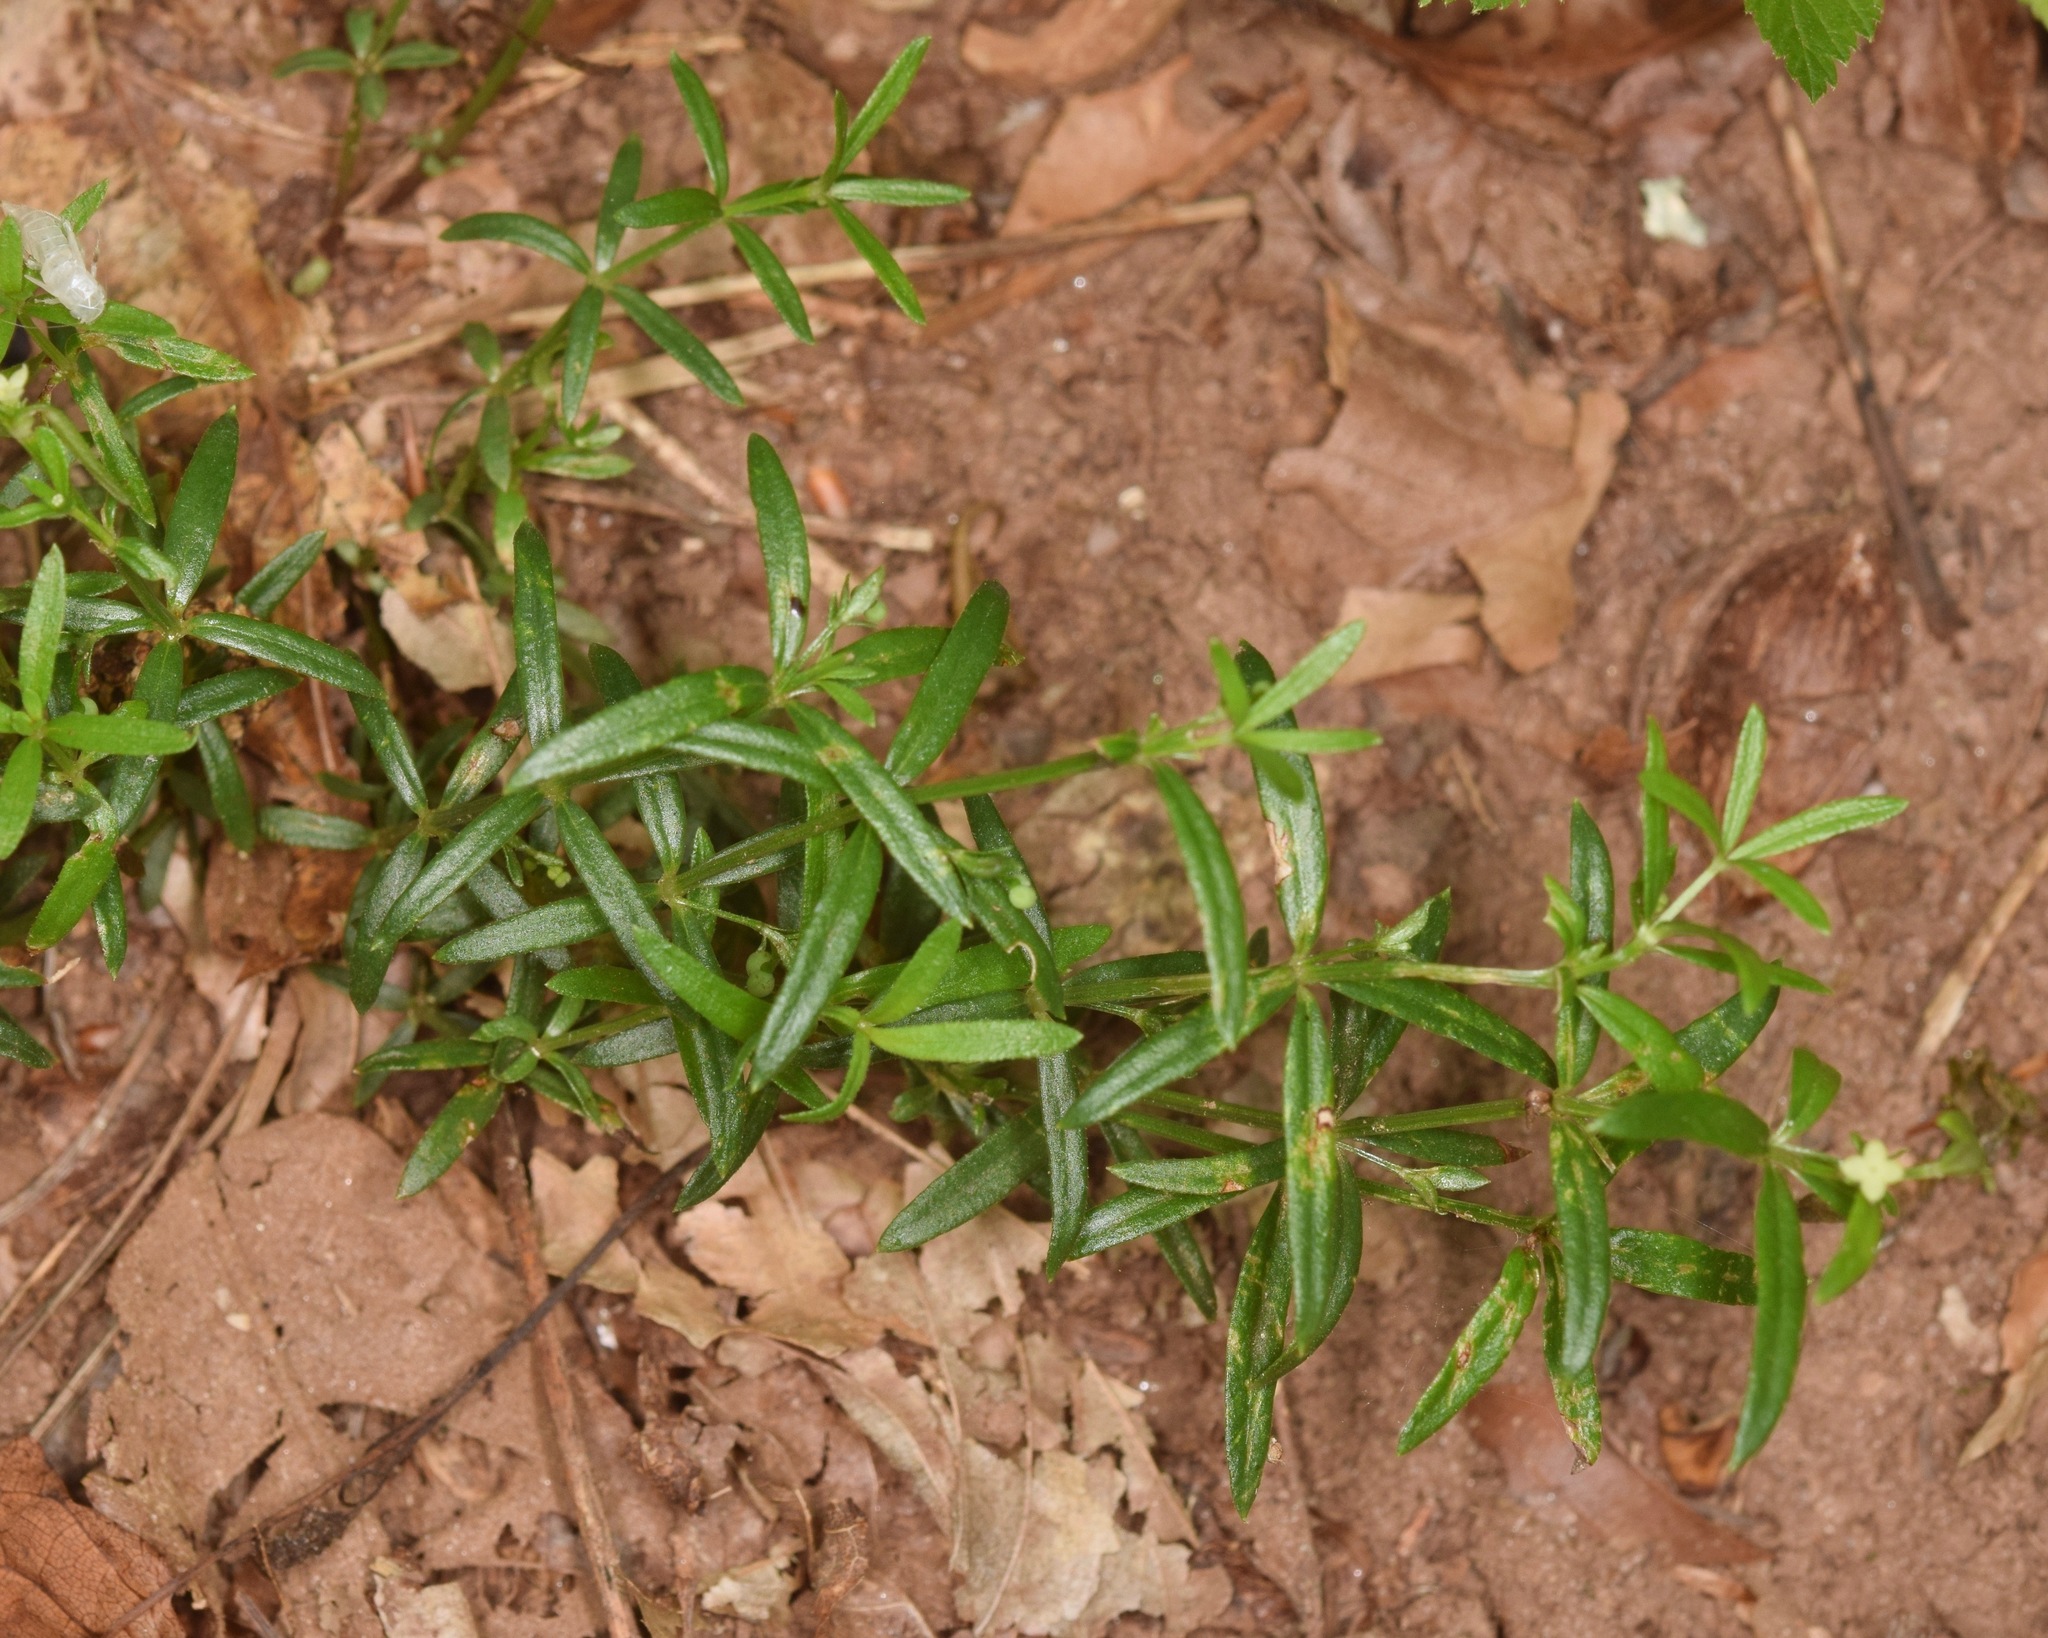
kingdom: Plantae
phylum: Tracheophyta
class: Magnoliopsida
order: Gentianales
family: Rubiaceae
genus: Galium
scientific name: Galium uniflorum
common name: One-flower bedstraw
